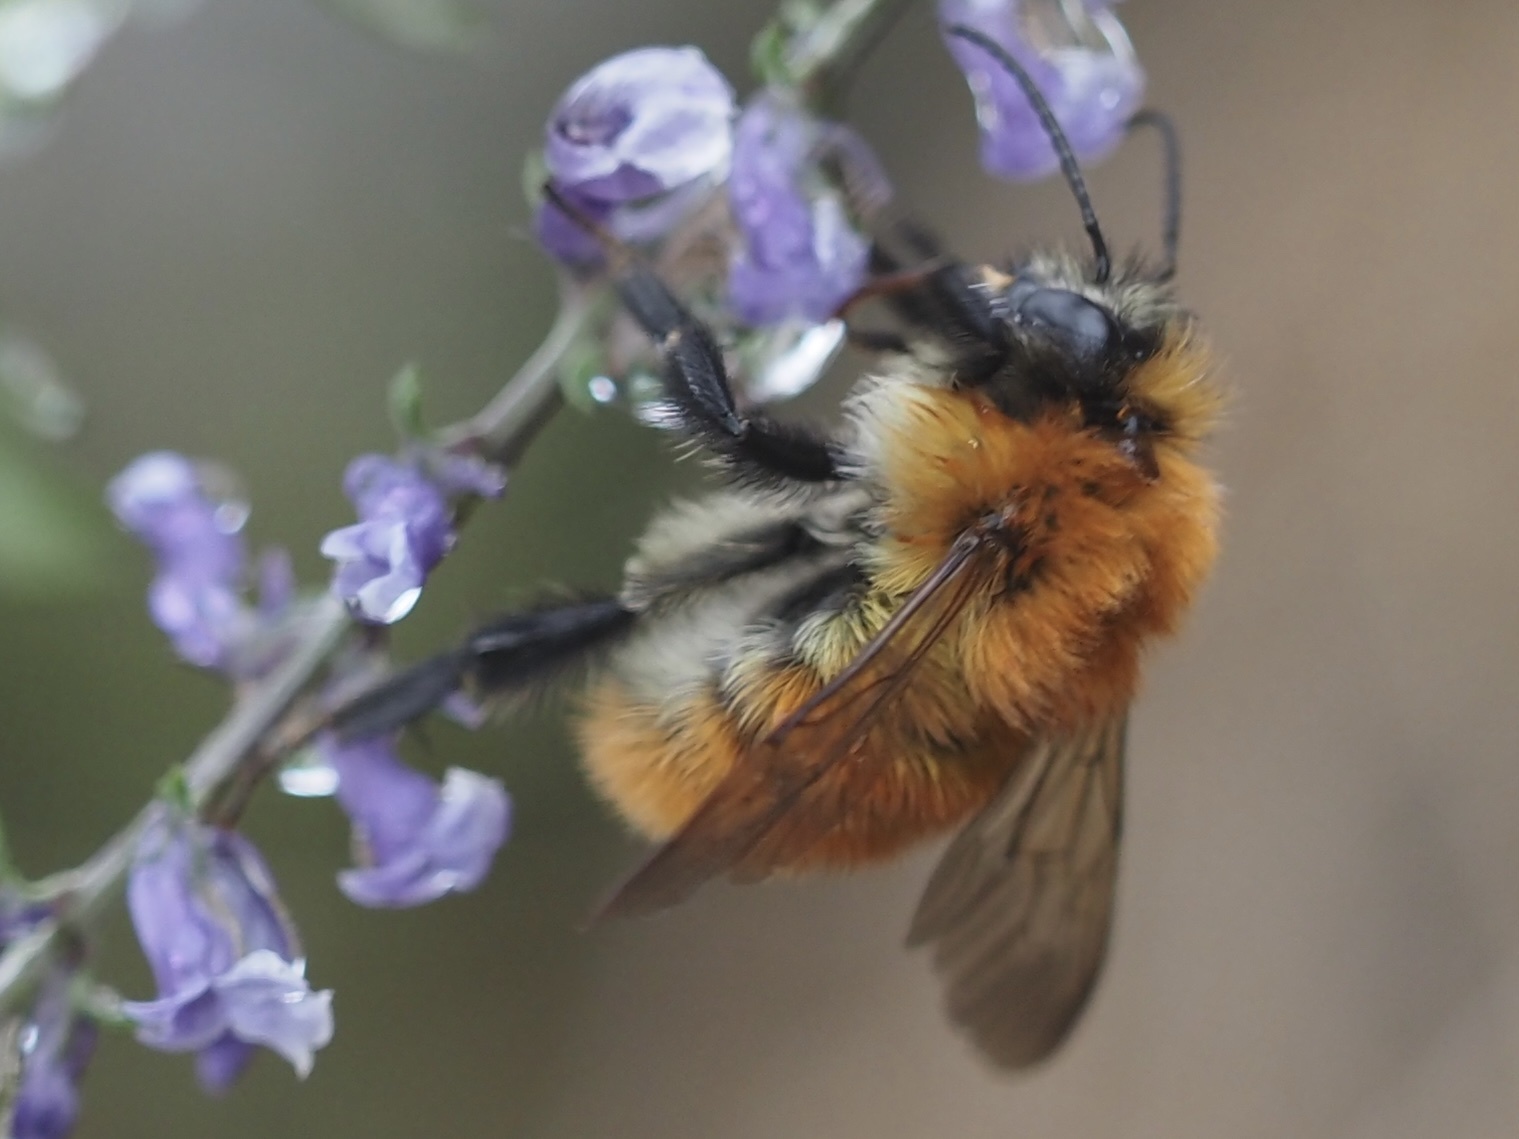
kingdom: Animalia
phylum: Arthropoda
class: Insecta
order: Hymenoptera
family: Apidae
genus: Bombus
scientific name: Bombus pascuorum
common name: Common carder bee
